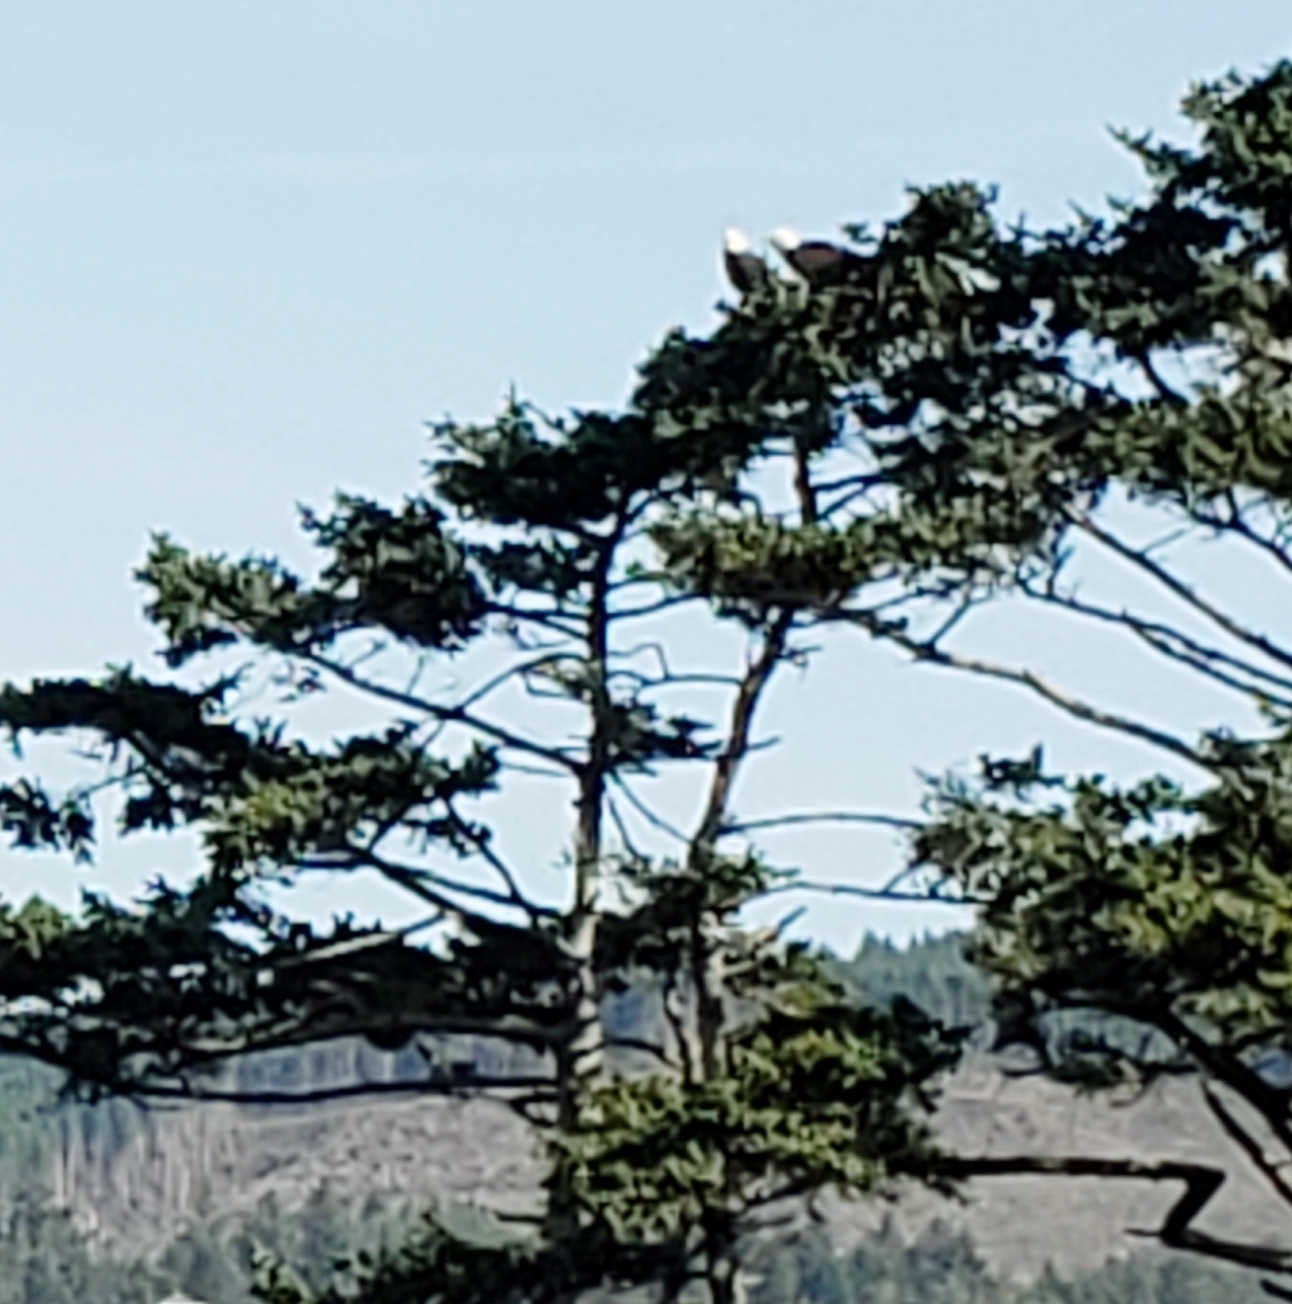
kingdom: Animalia
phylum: Chordata
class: Aves
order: Accipitriformes
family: Accipitridae
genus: Haliaeetus
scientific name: Haliaeetus leucocephalus
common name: Bald eagle
